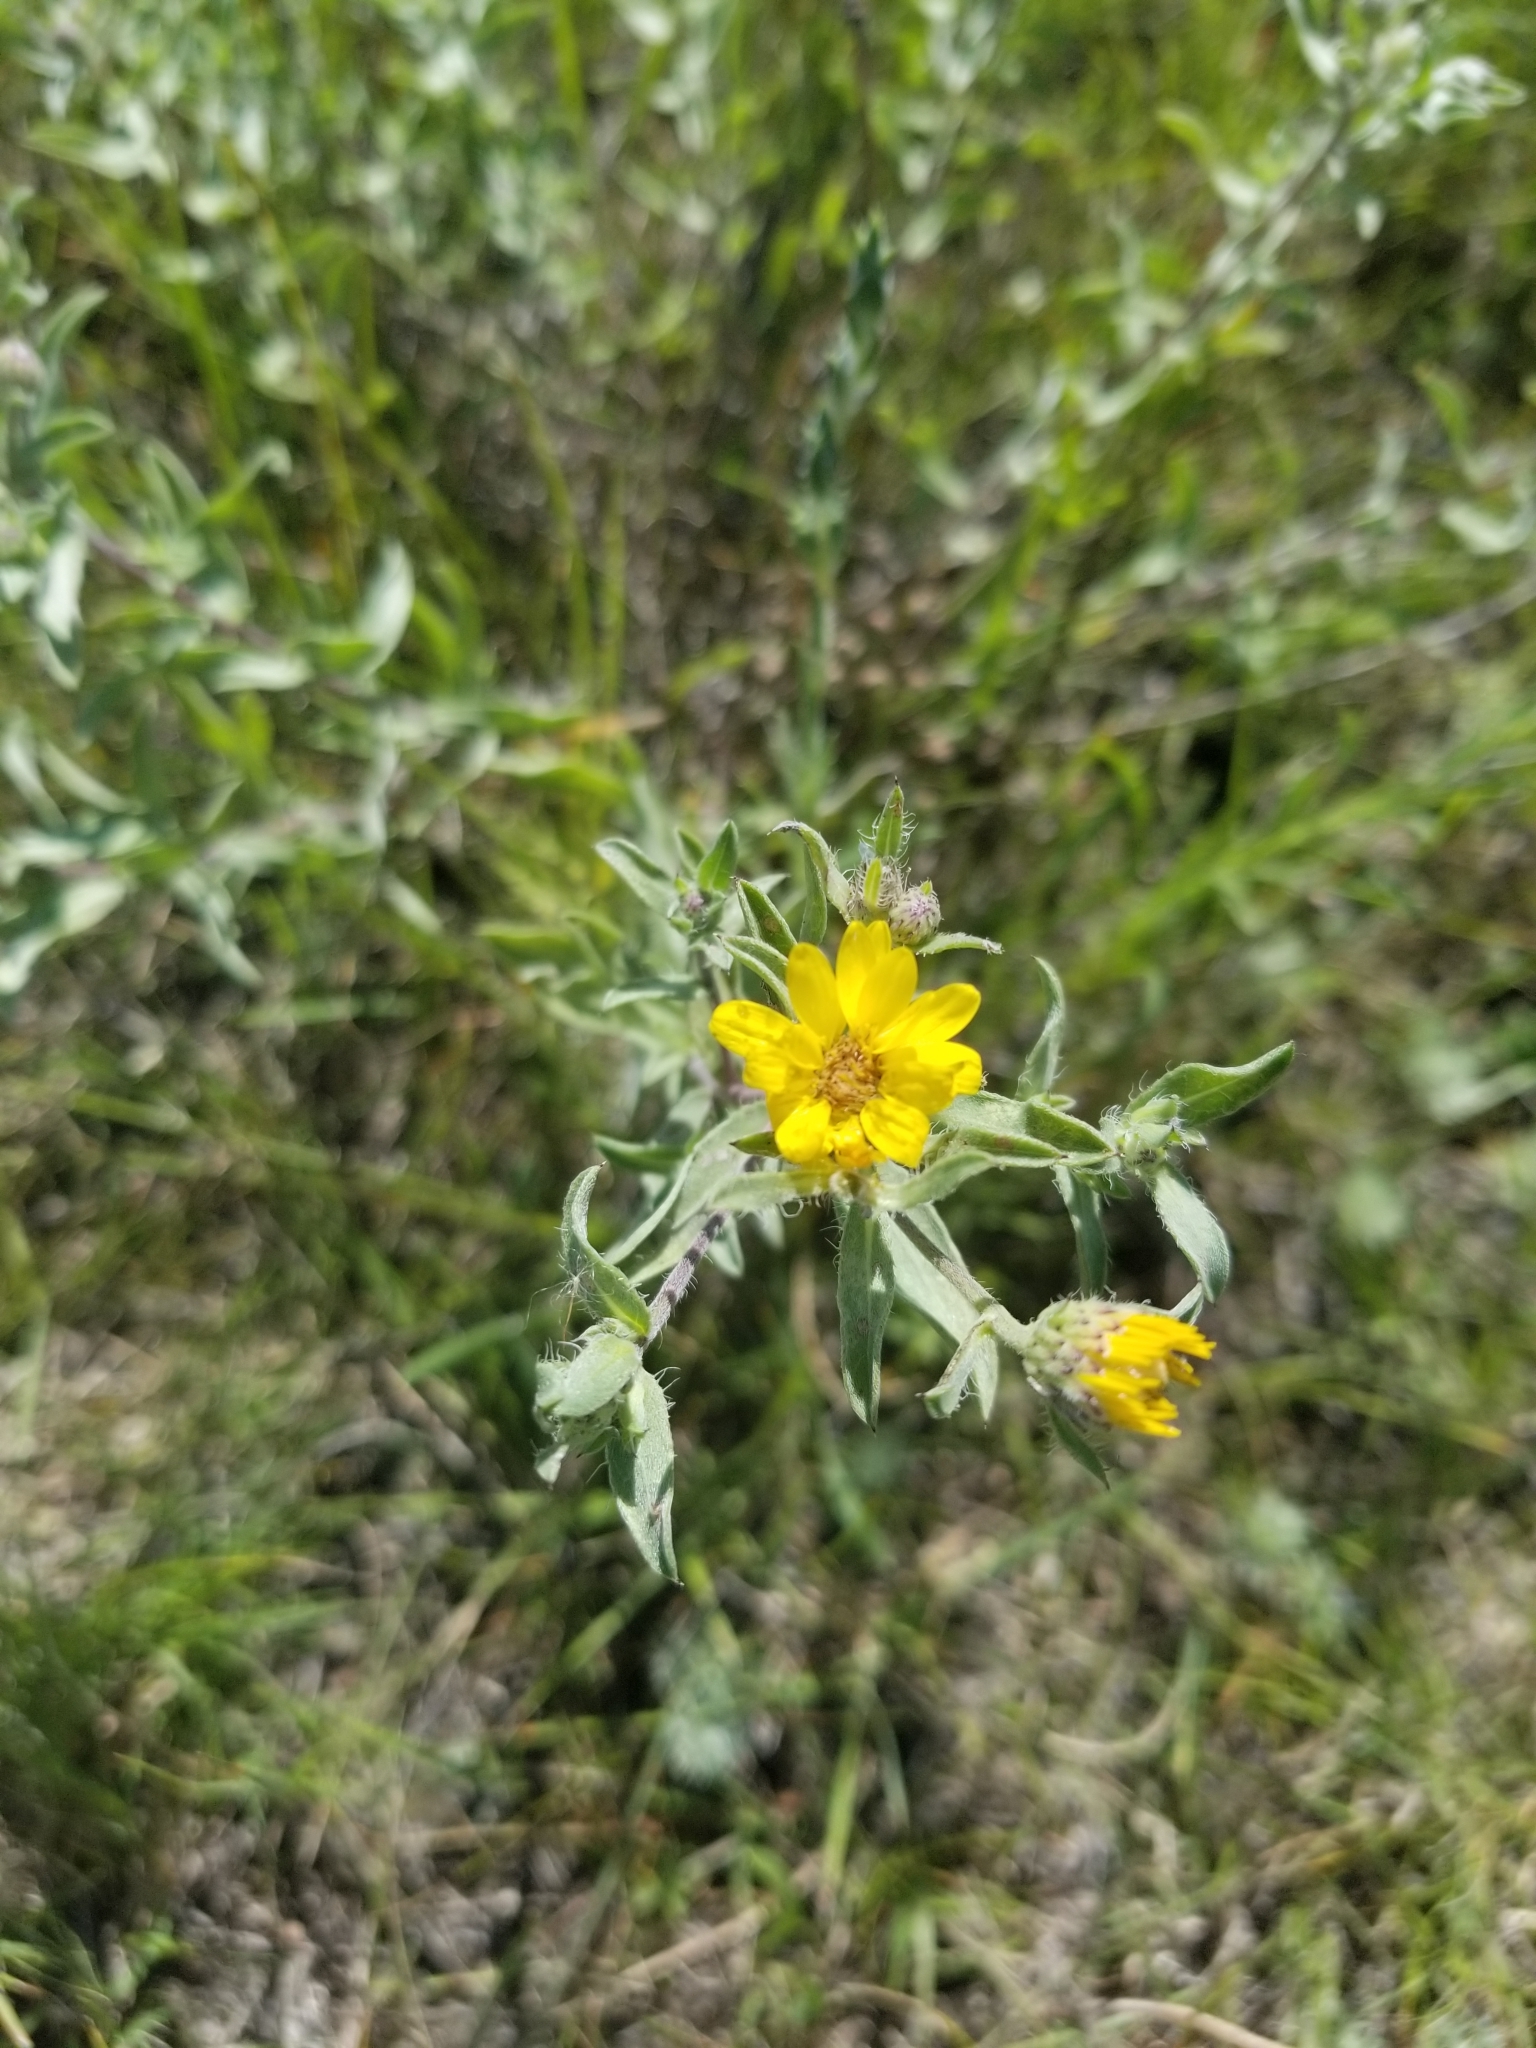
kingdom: Plantae
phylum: Tracheophyta
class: Magnoliopsida
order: Asterales
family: Asteraceae
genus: Heterotheca
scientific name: Heterotheca villosa
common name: Hairy false goldenaster
